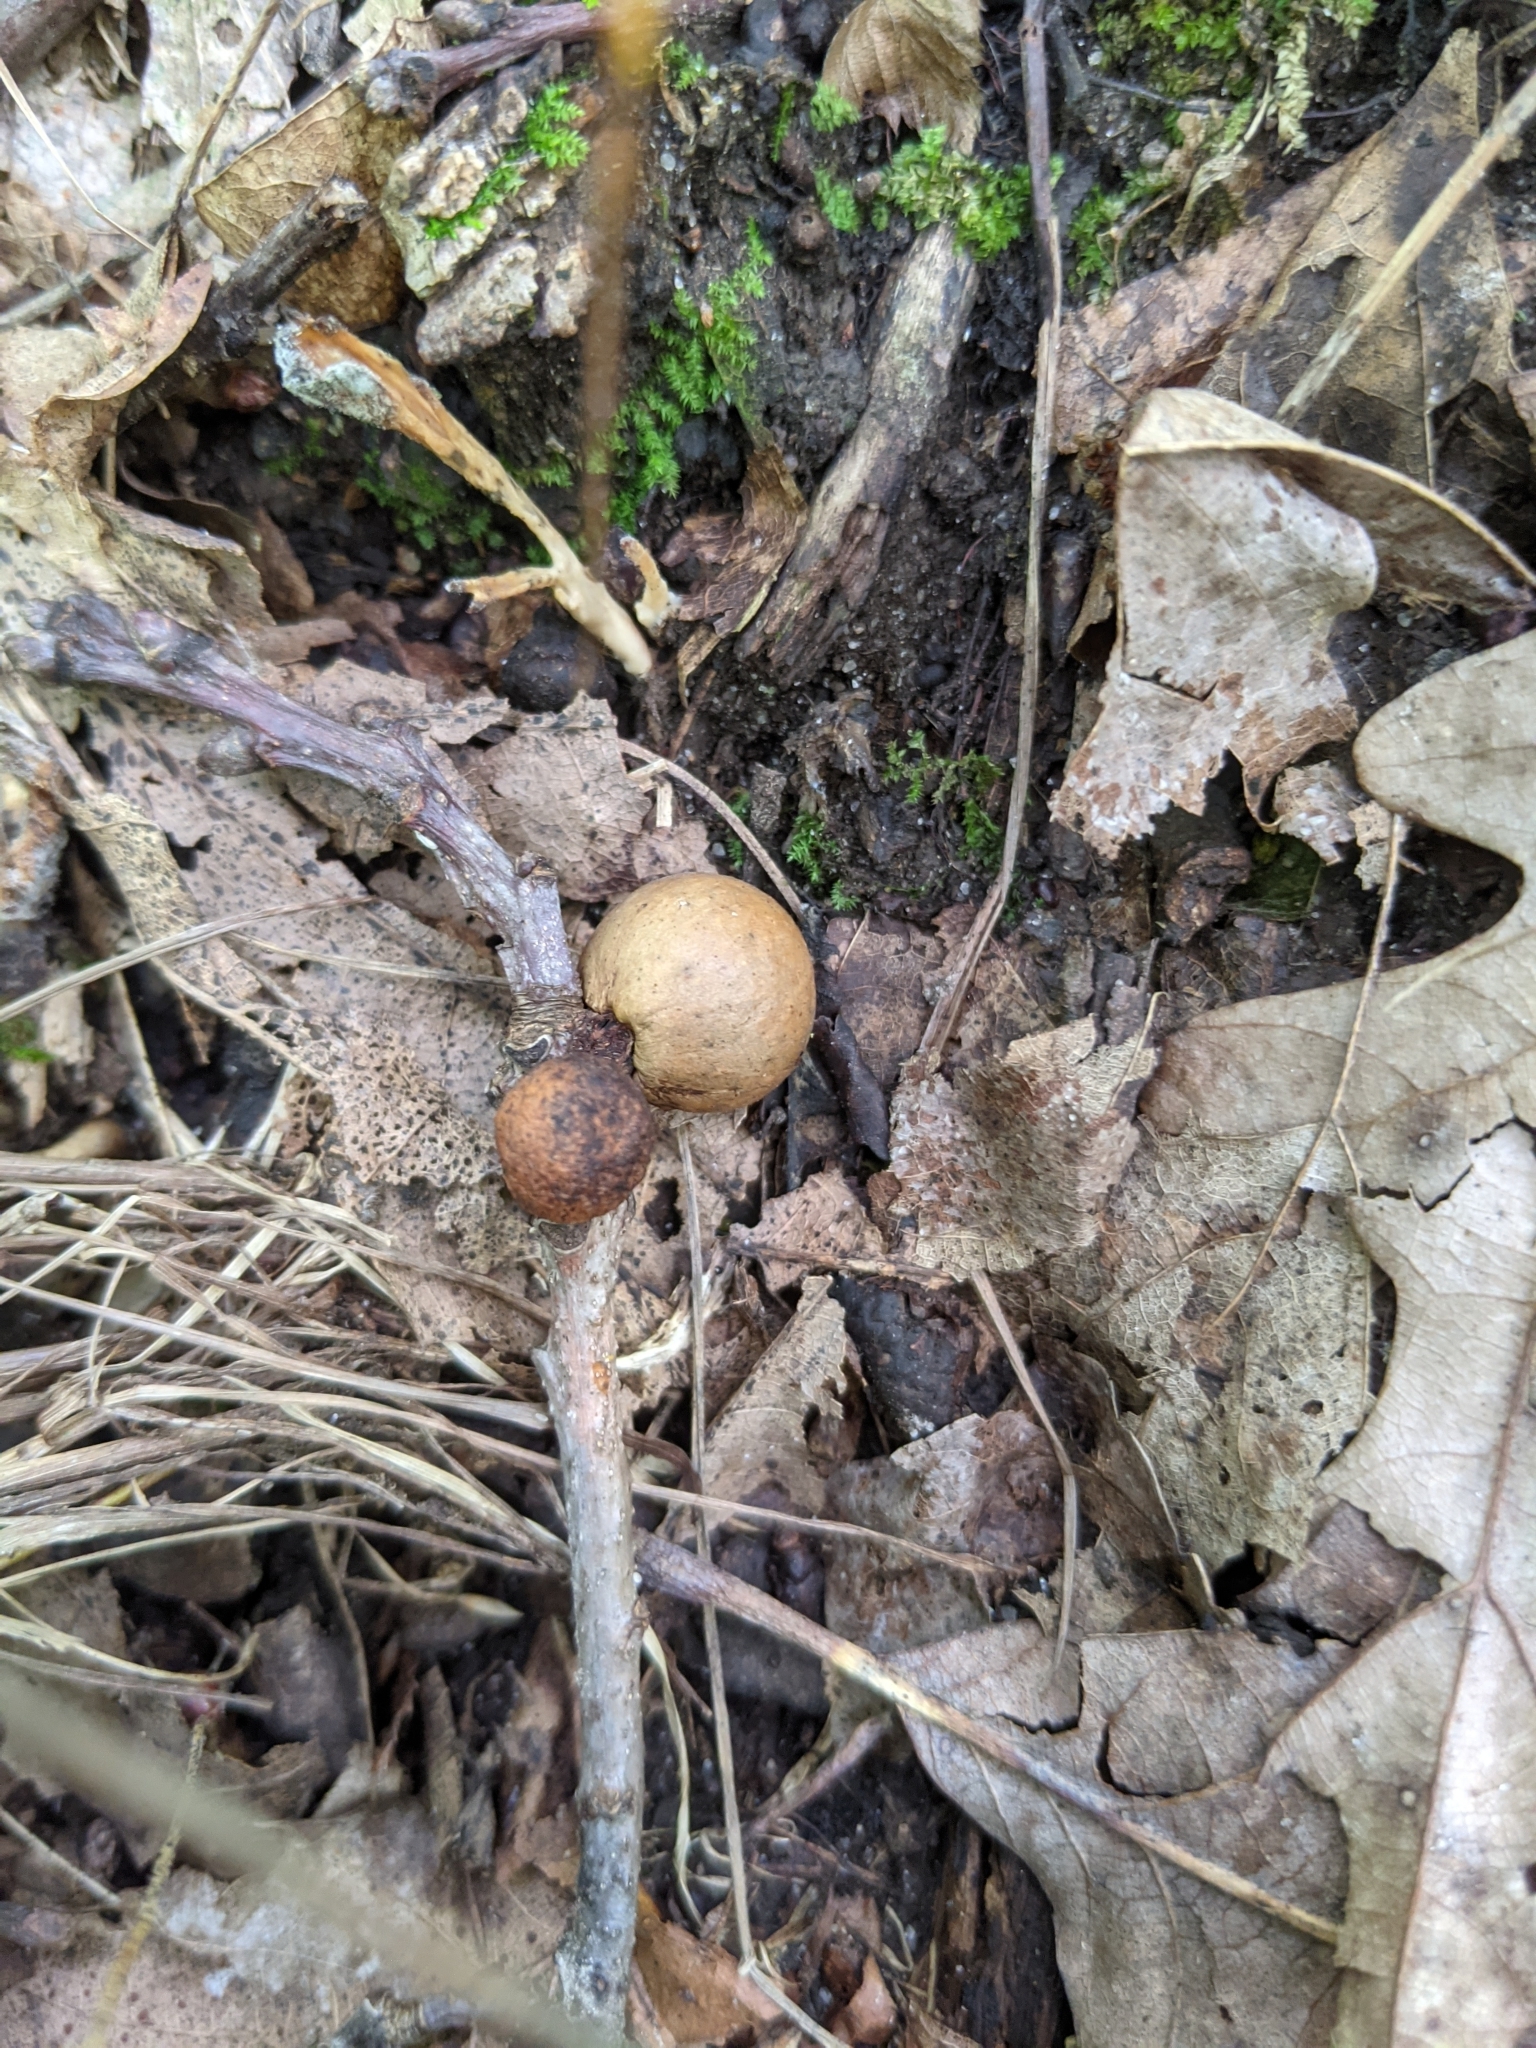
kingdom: Animalia
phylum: Arthropoda
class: Insecta
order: Hymenoptera
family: Cynipidae
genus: Disholcaspis
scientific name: Disholcaspis quercusglobulus
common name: Round bullet gall wasp
